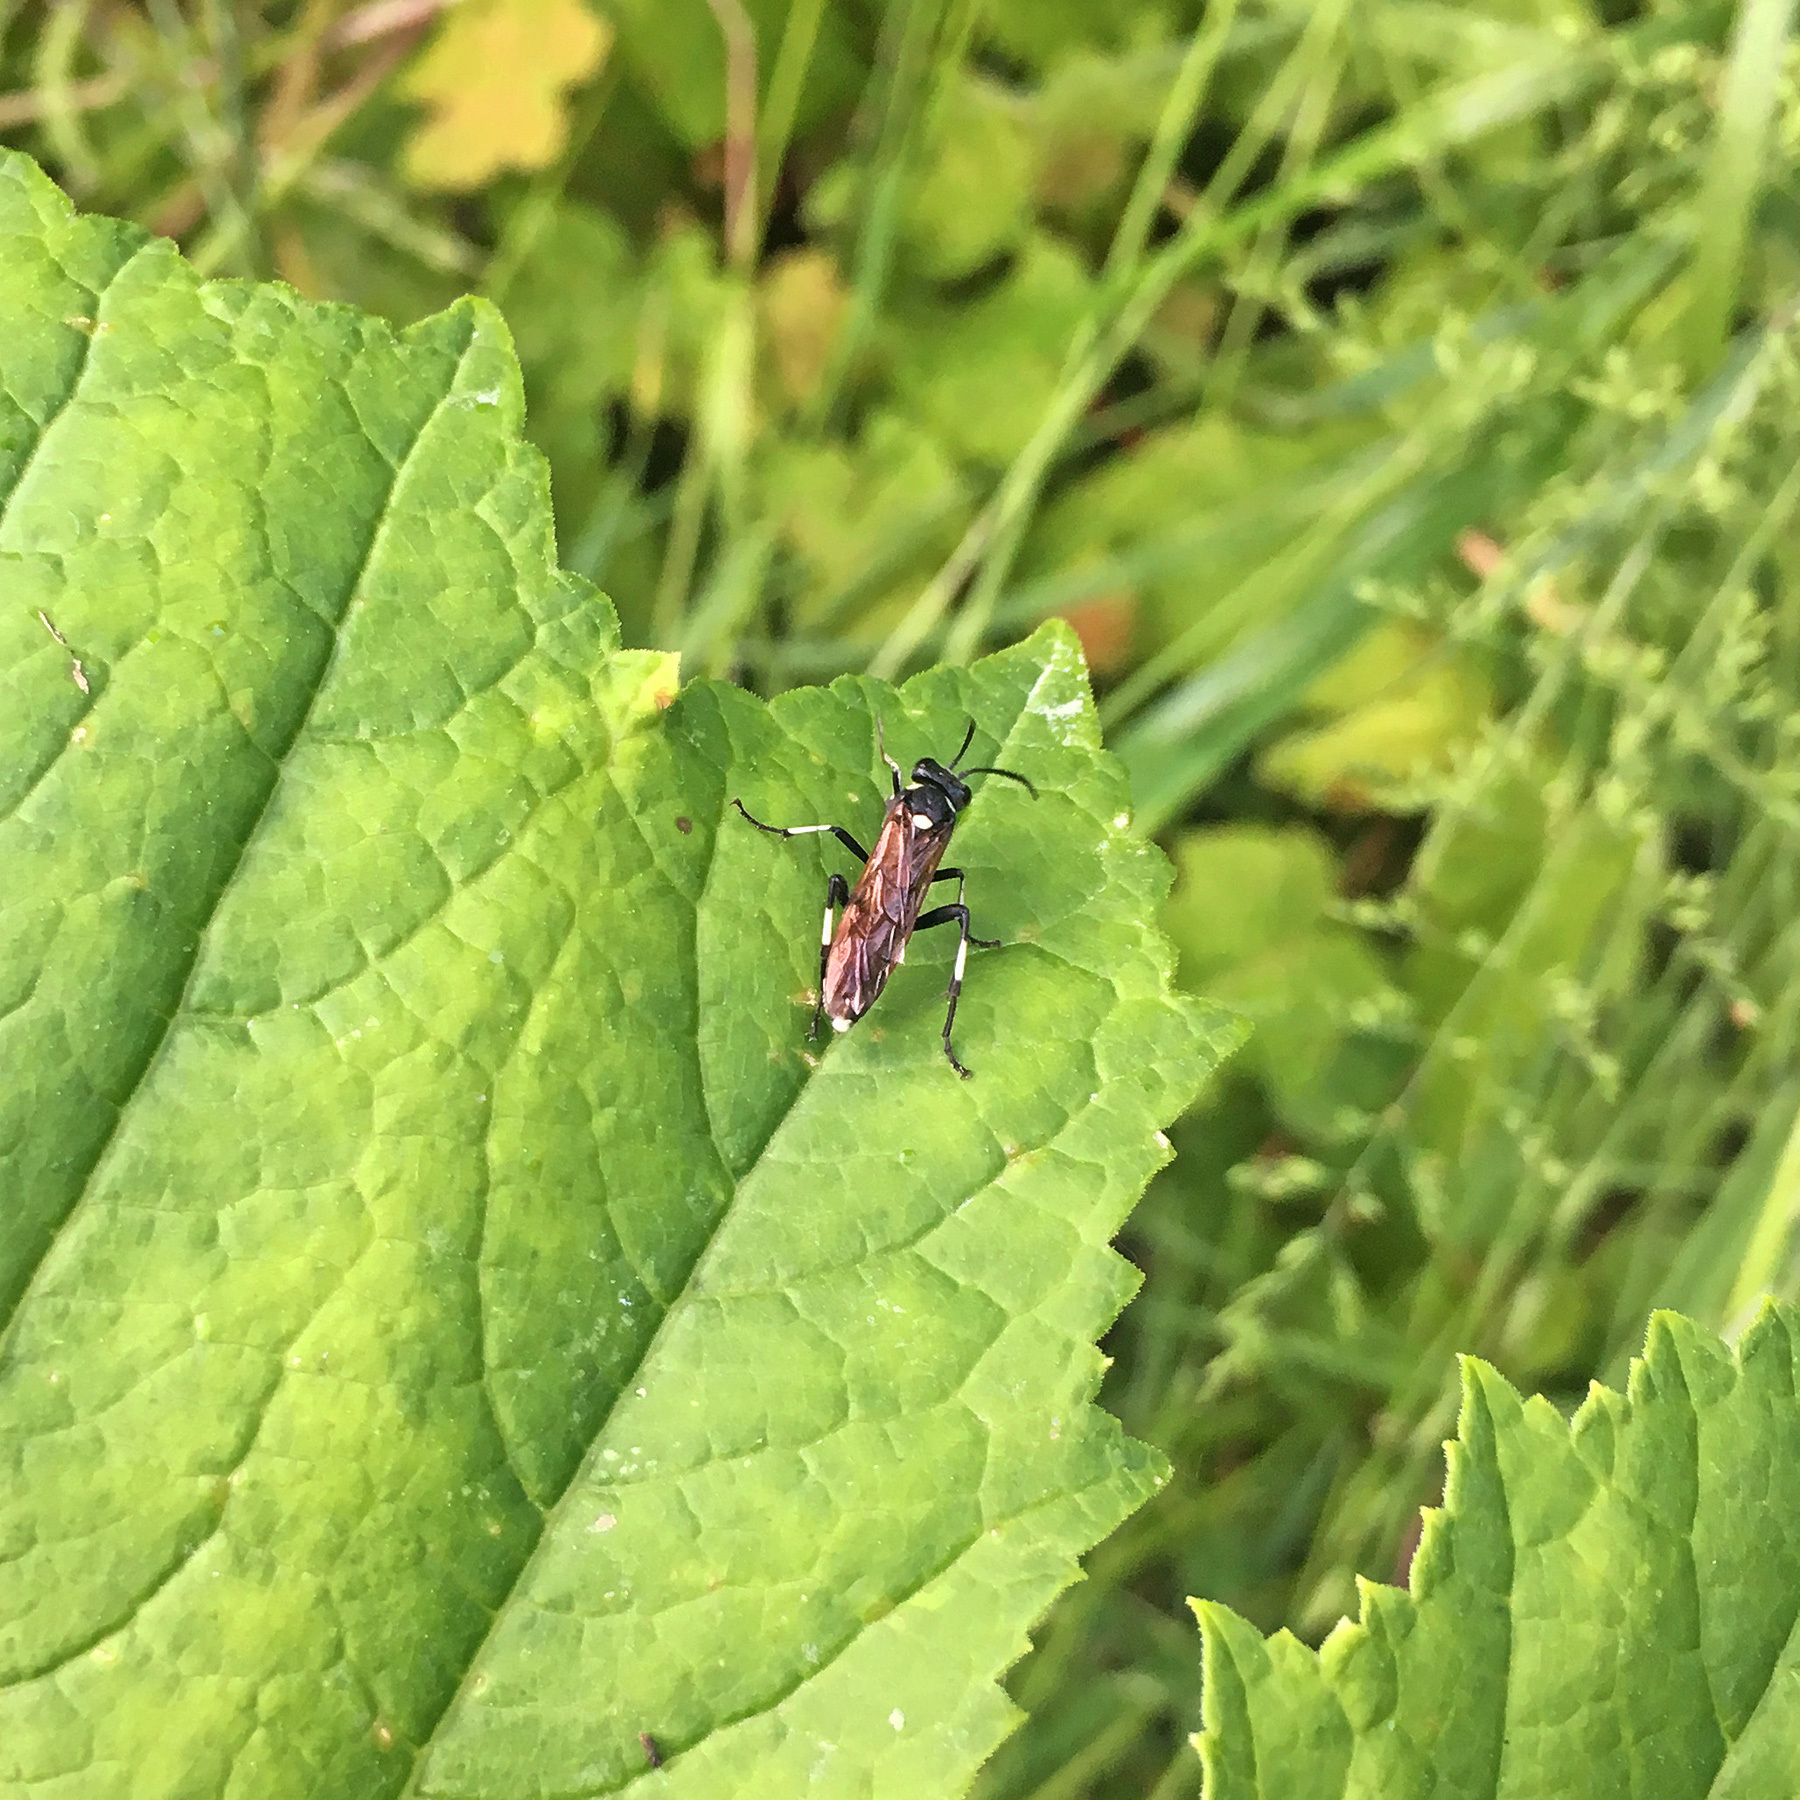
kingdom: Animalia
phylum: Arthropoda
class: Insecta
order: Hymenoptera
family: Tenthredinidae
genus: Macrophya
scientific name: Macrophya duodecimpunctata
